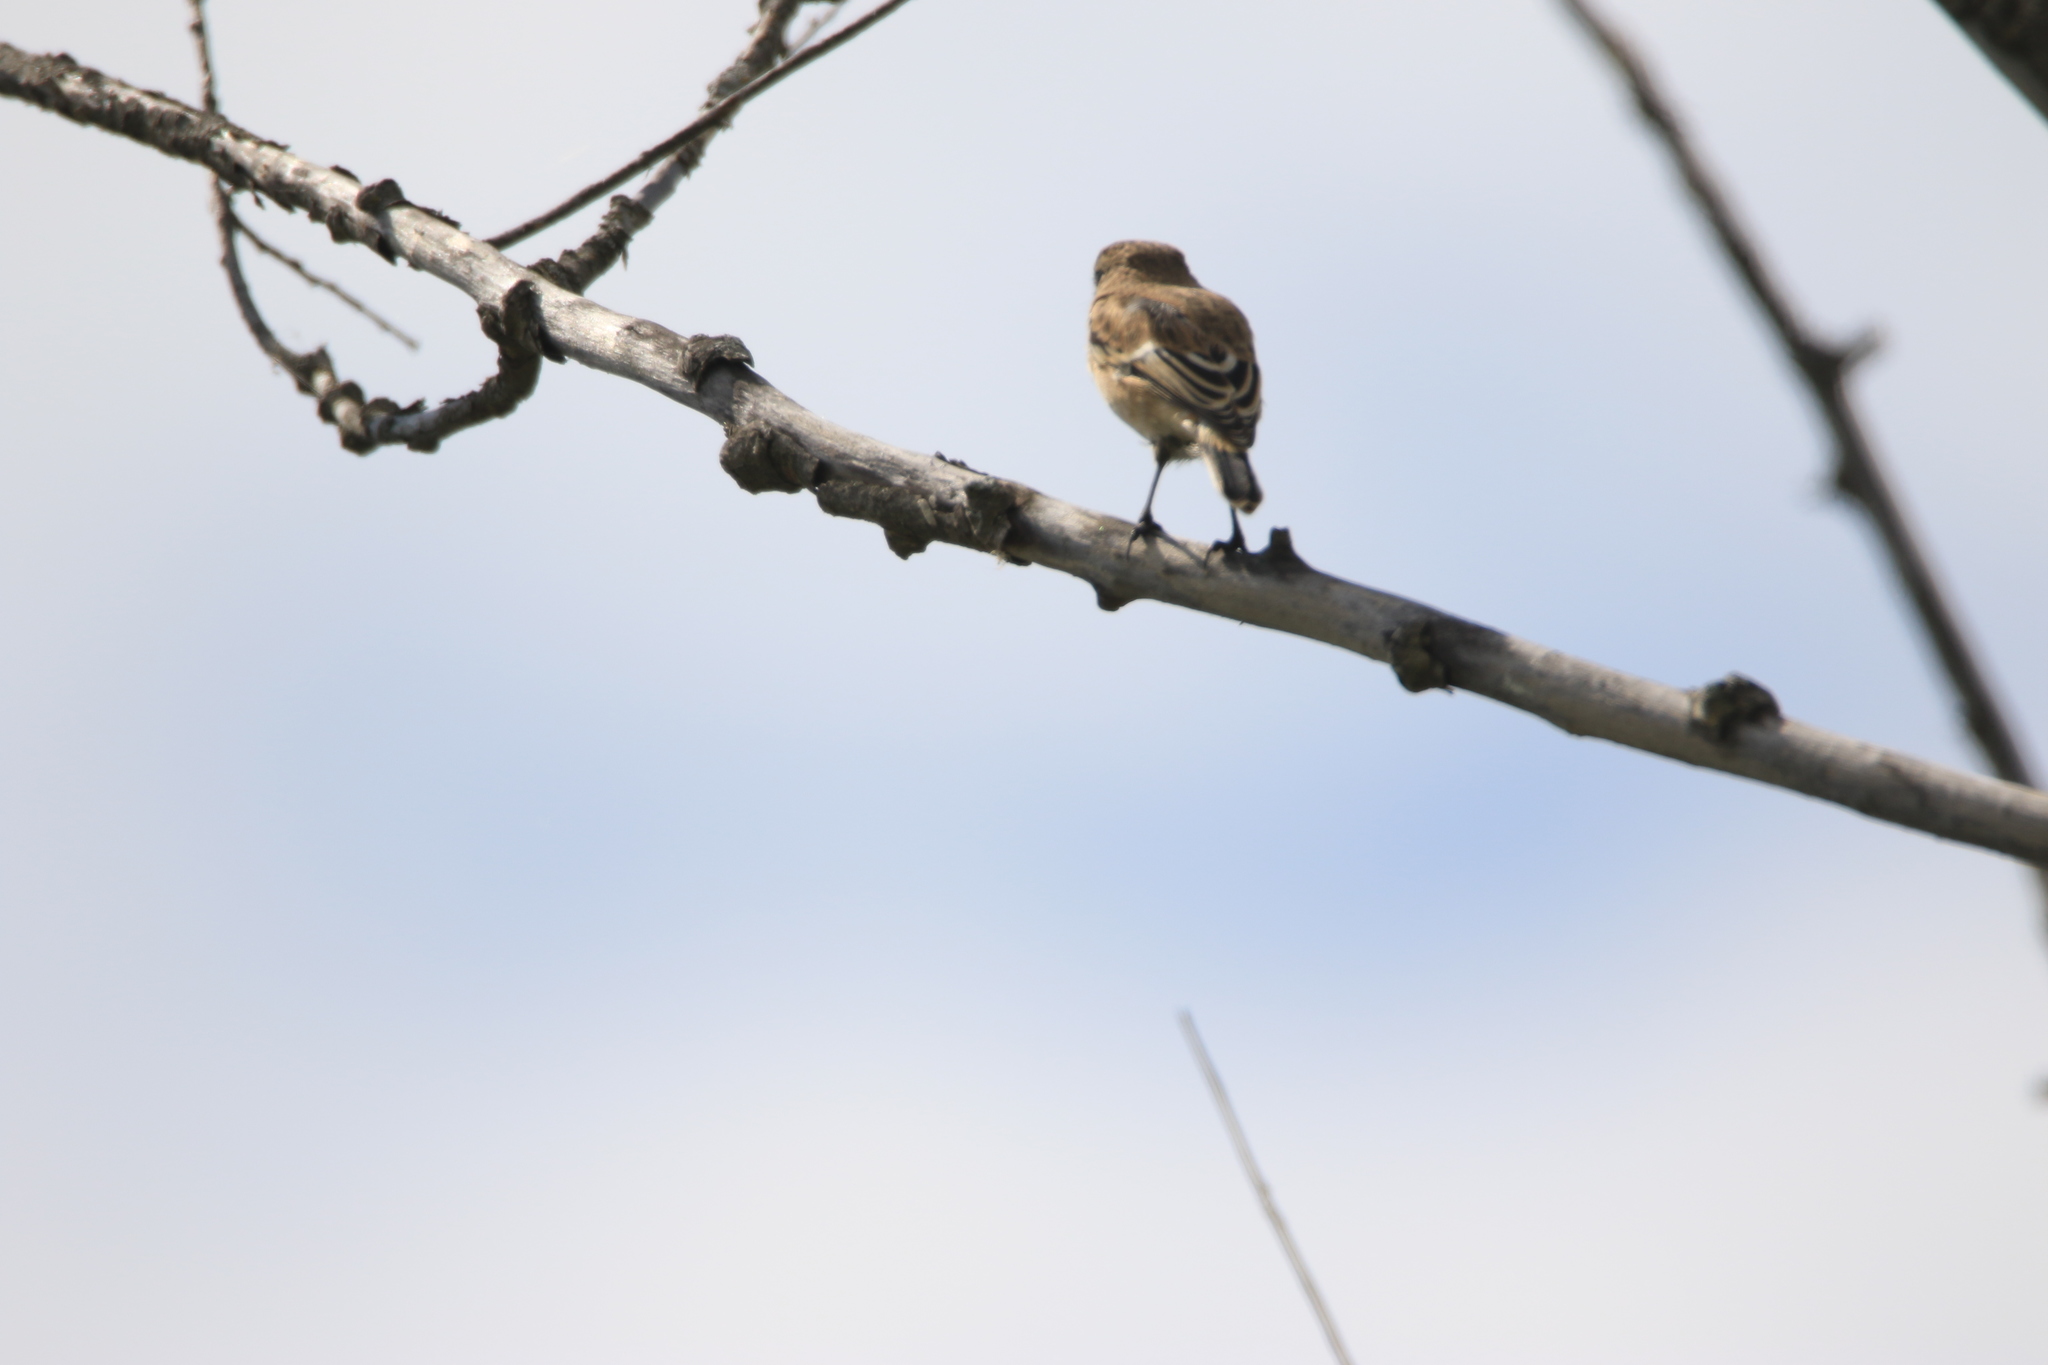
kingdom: Animalia
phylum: Chordata
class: Aves
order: Passeriformes
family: Muscicapidae
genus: Saxicola
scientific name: Saxicola maurus
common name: Siberian stonechat
